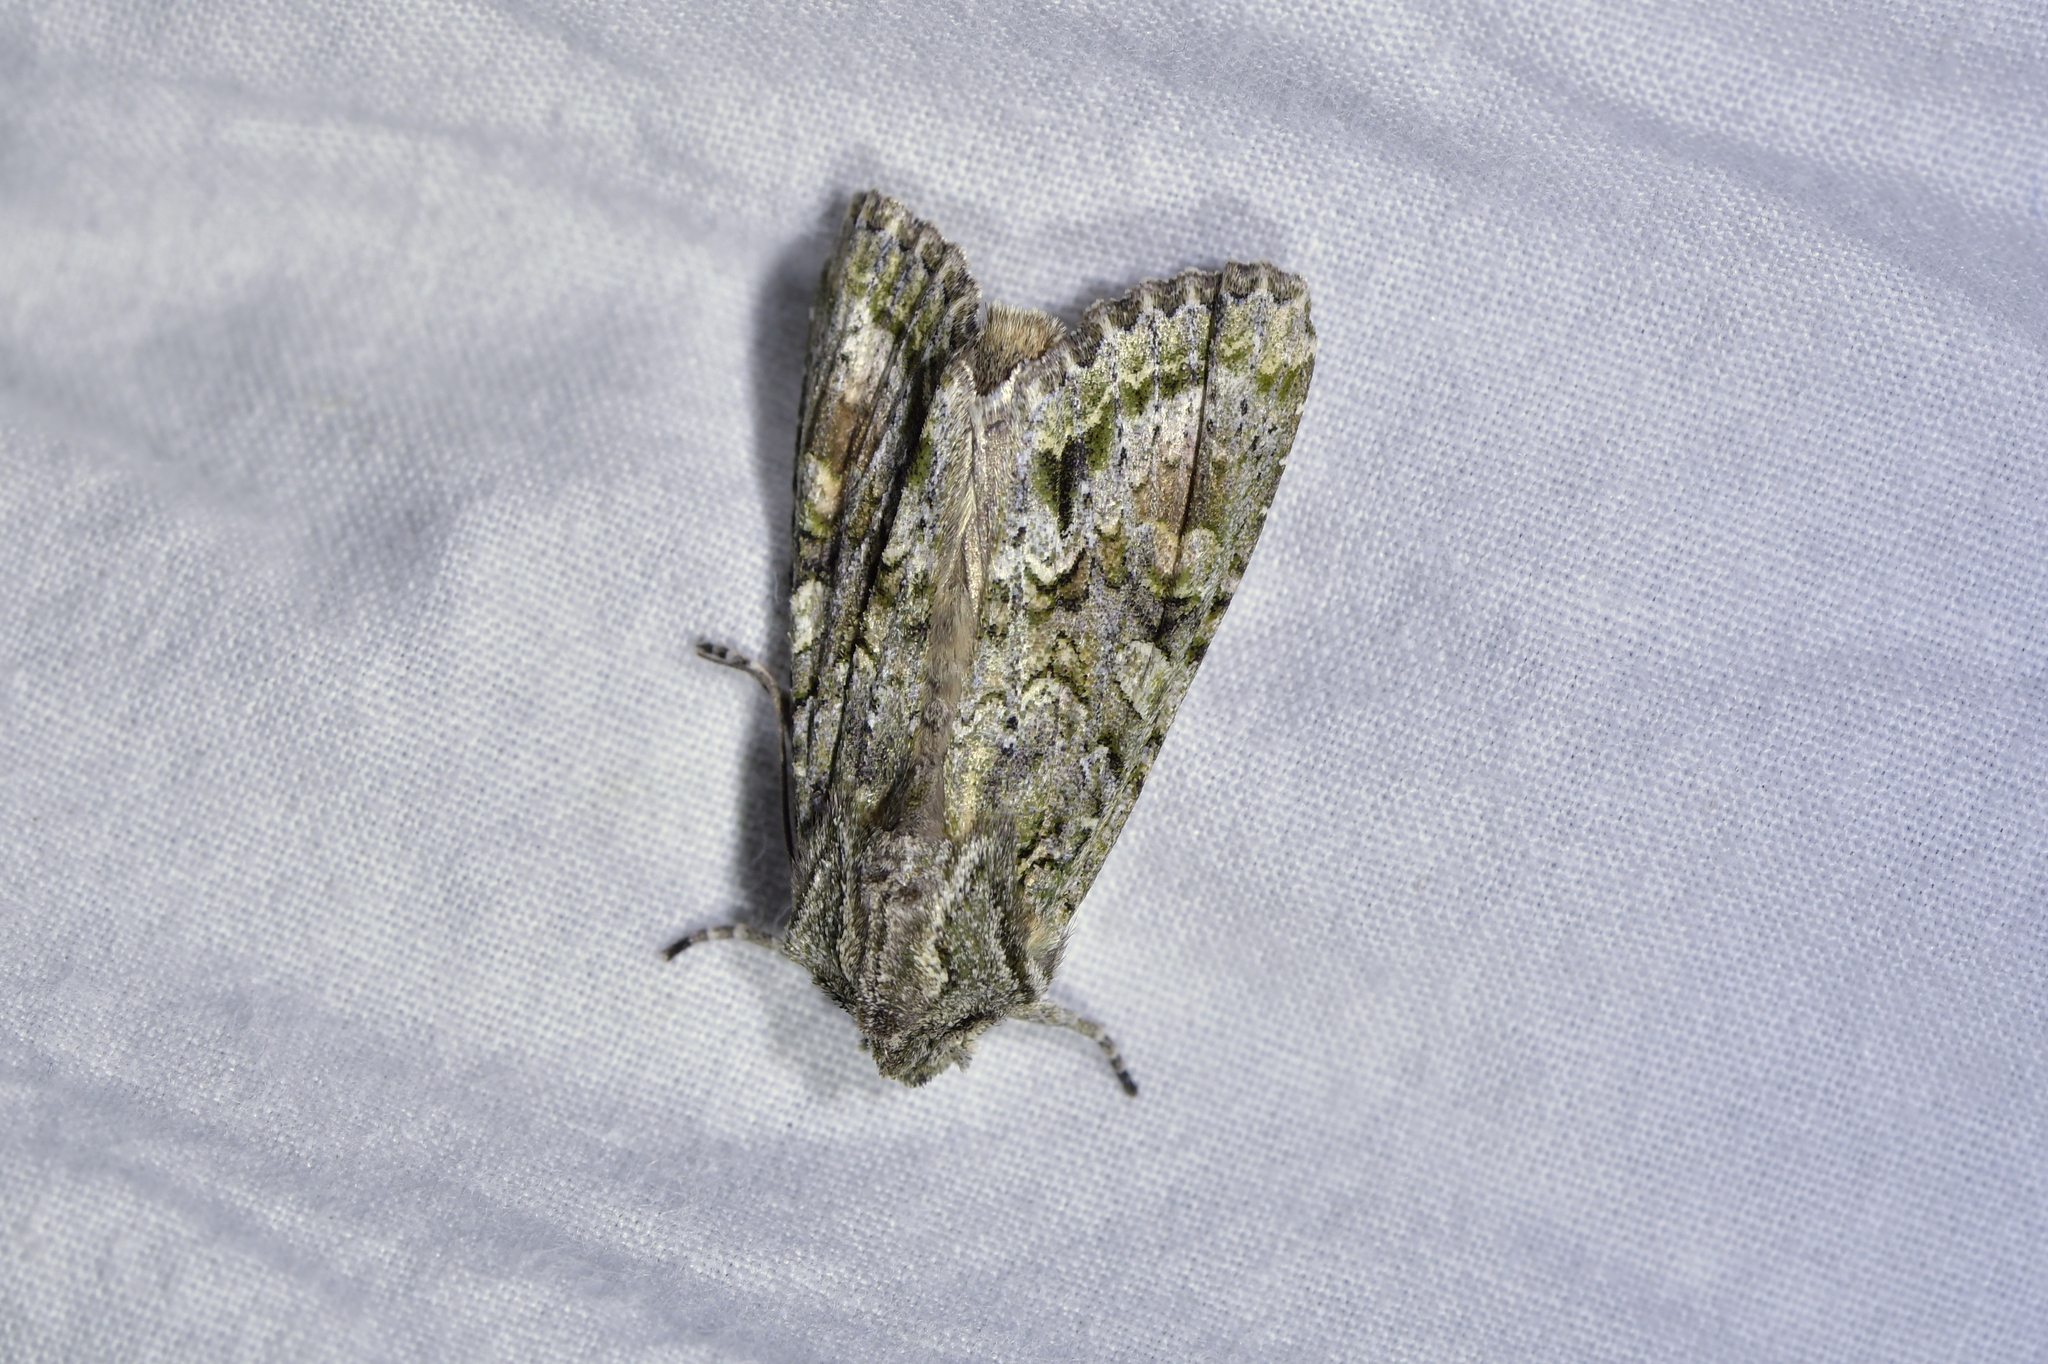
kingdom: Animalia
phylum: Arthropoda
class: Insecta
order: Lepidoptera
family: Noctuidae
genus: Ichneutica
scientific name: Ichneutica mutans
